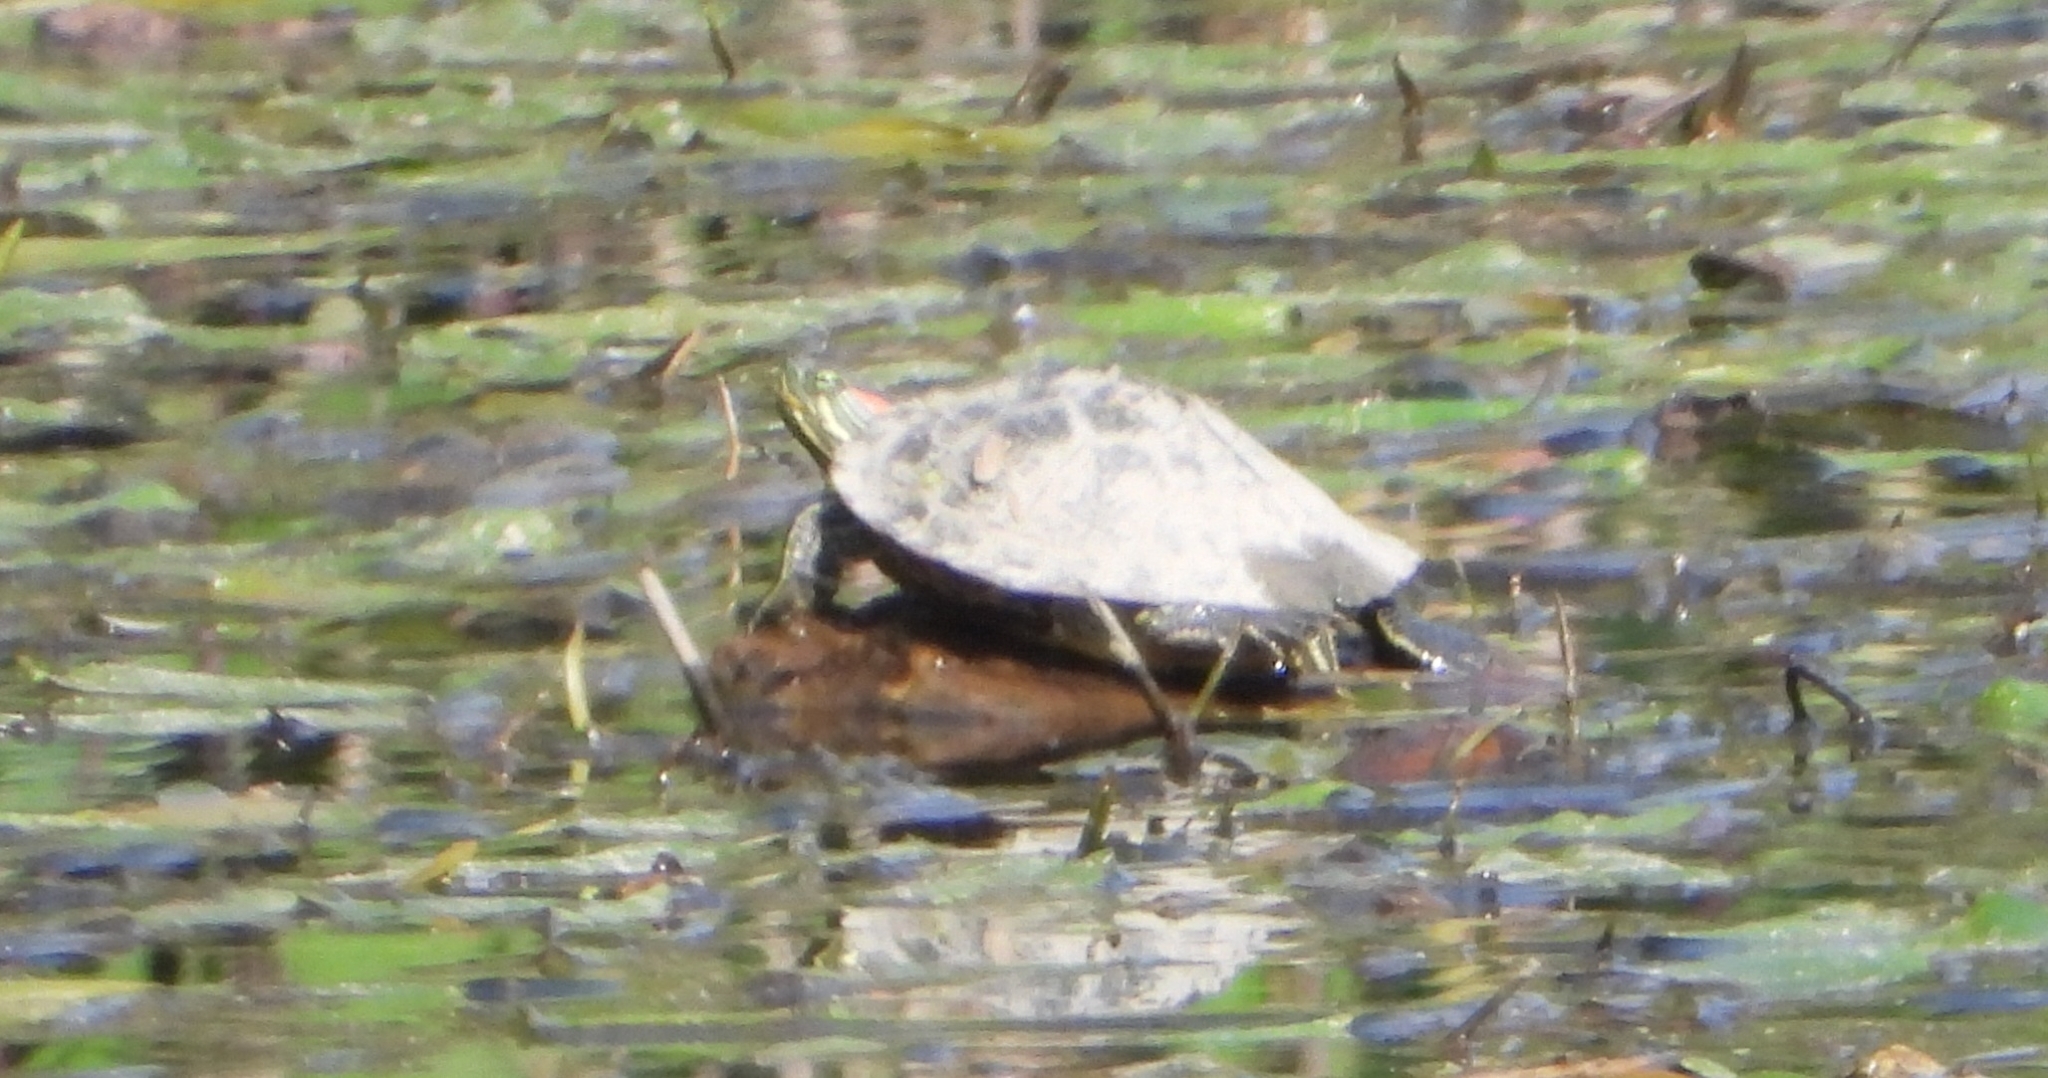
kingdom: Animalia
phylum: Chordata
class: Testudines
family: Emydidae
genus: Trachemys
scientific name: Trachemys scripta
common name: Slider
